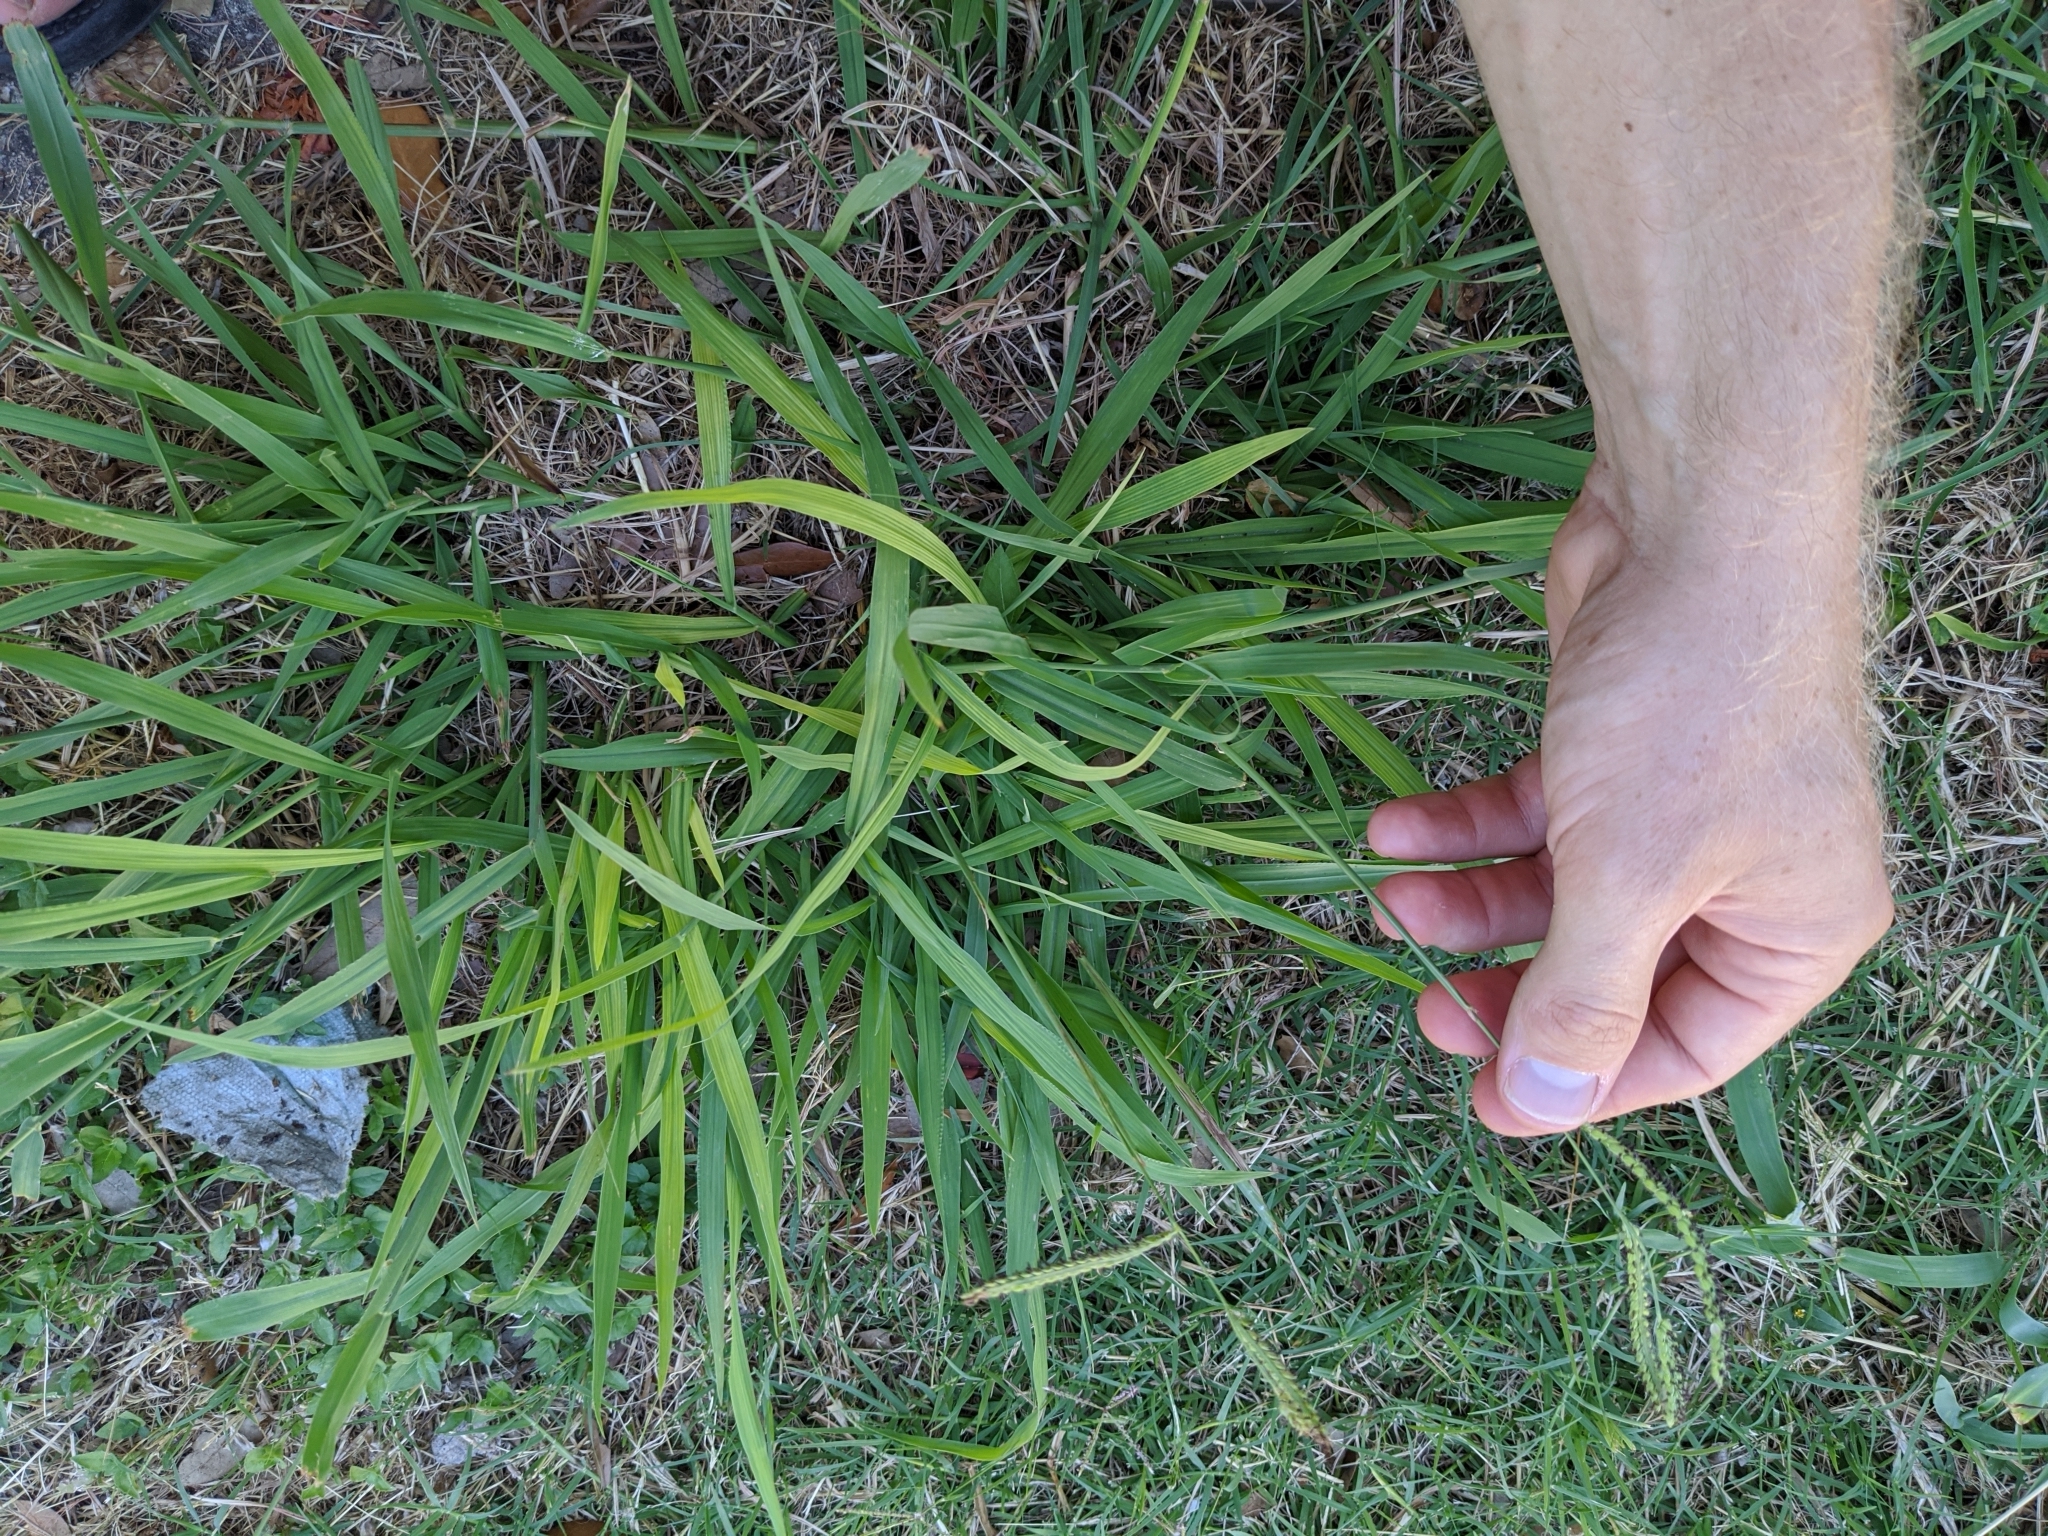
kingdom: Plantae
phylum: Tracheophyta
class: Liliopsida
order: Poales
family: Poaceae
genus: Paspalum
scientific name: Paspalum dilatatum
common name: Dallisgrass
